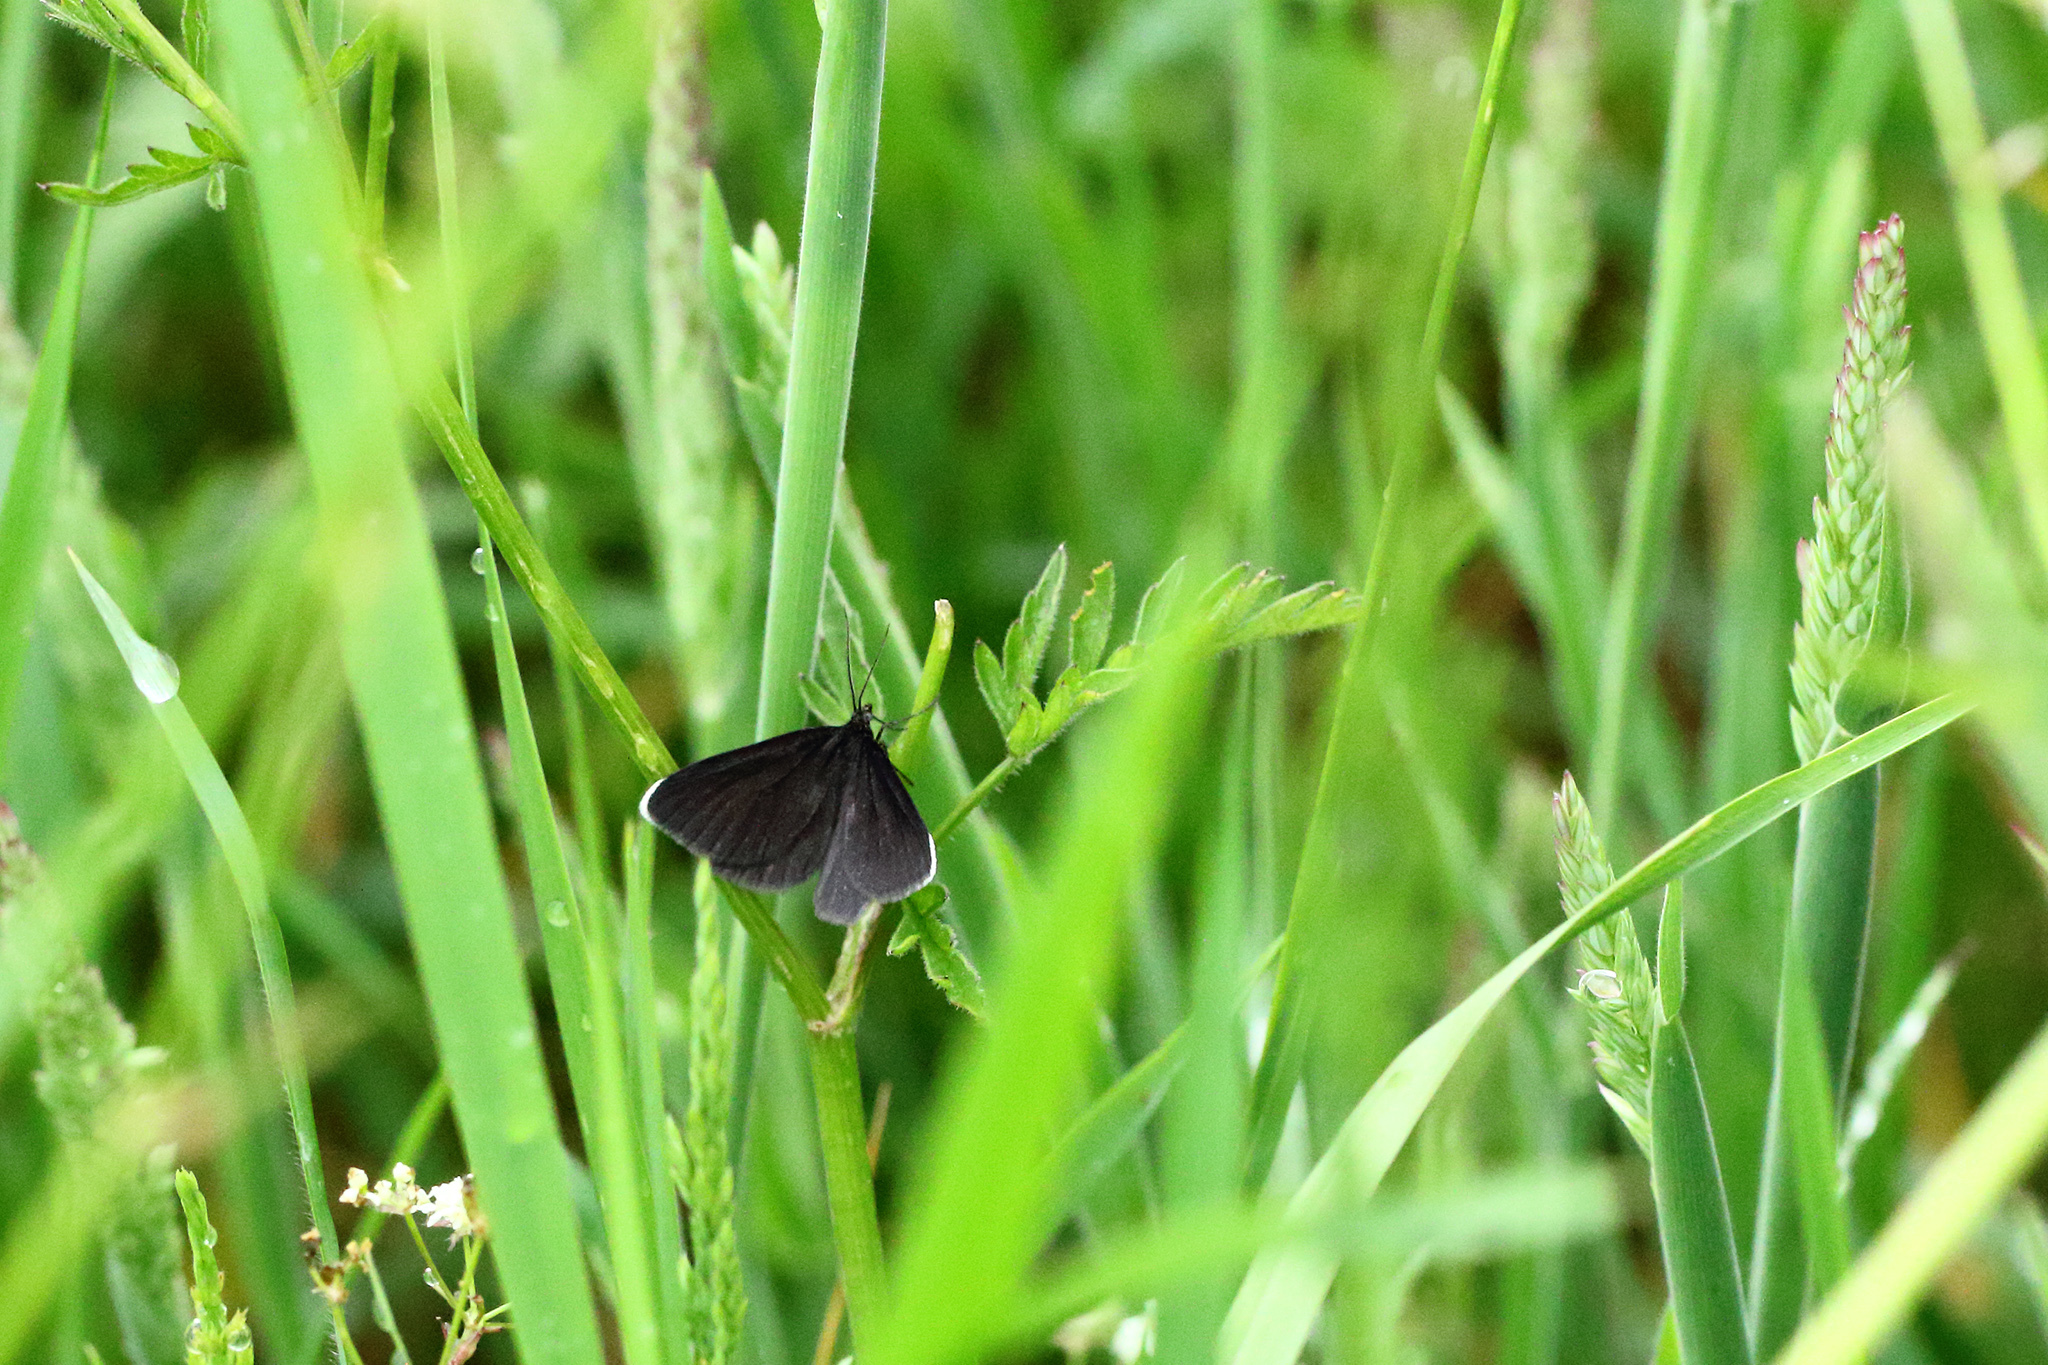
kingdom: Animalia
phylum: Arthropoda
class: Insecta
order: Lepidoptera
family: Geometridae
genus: Odezia
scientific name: Odezia atrata
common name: Chimney sweeper
